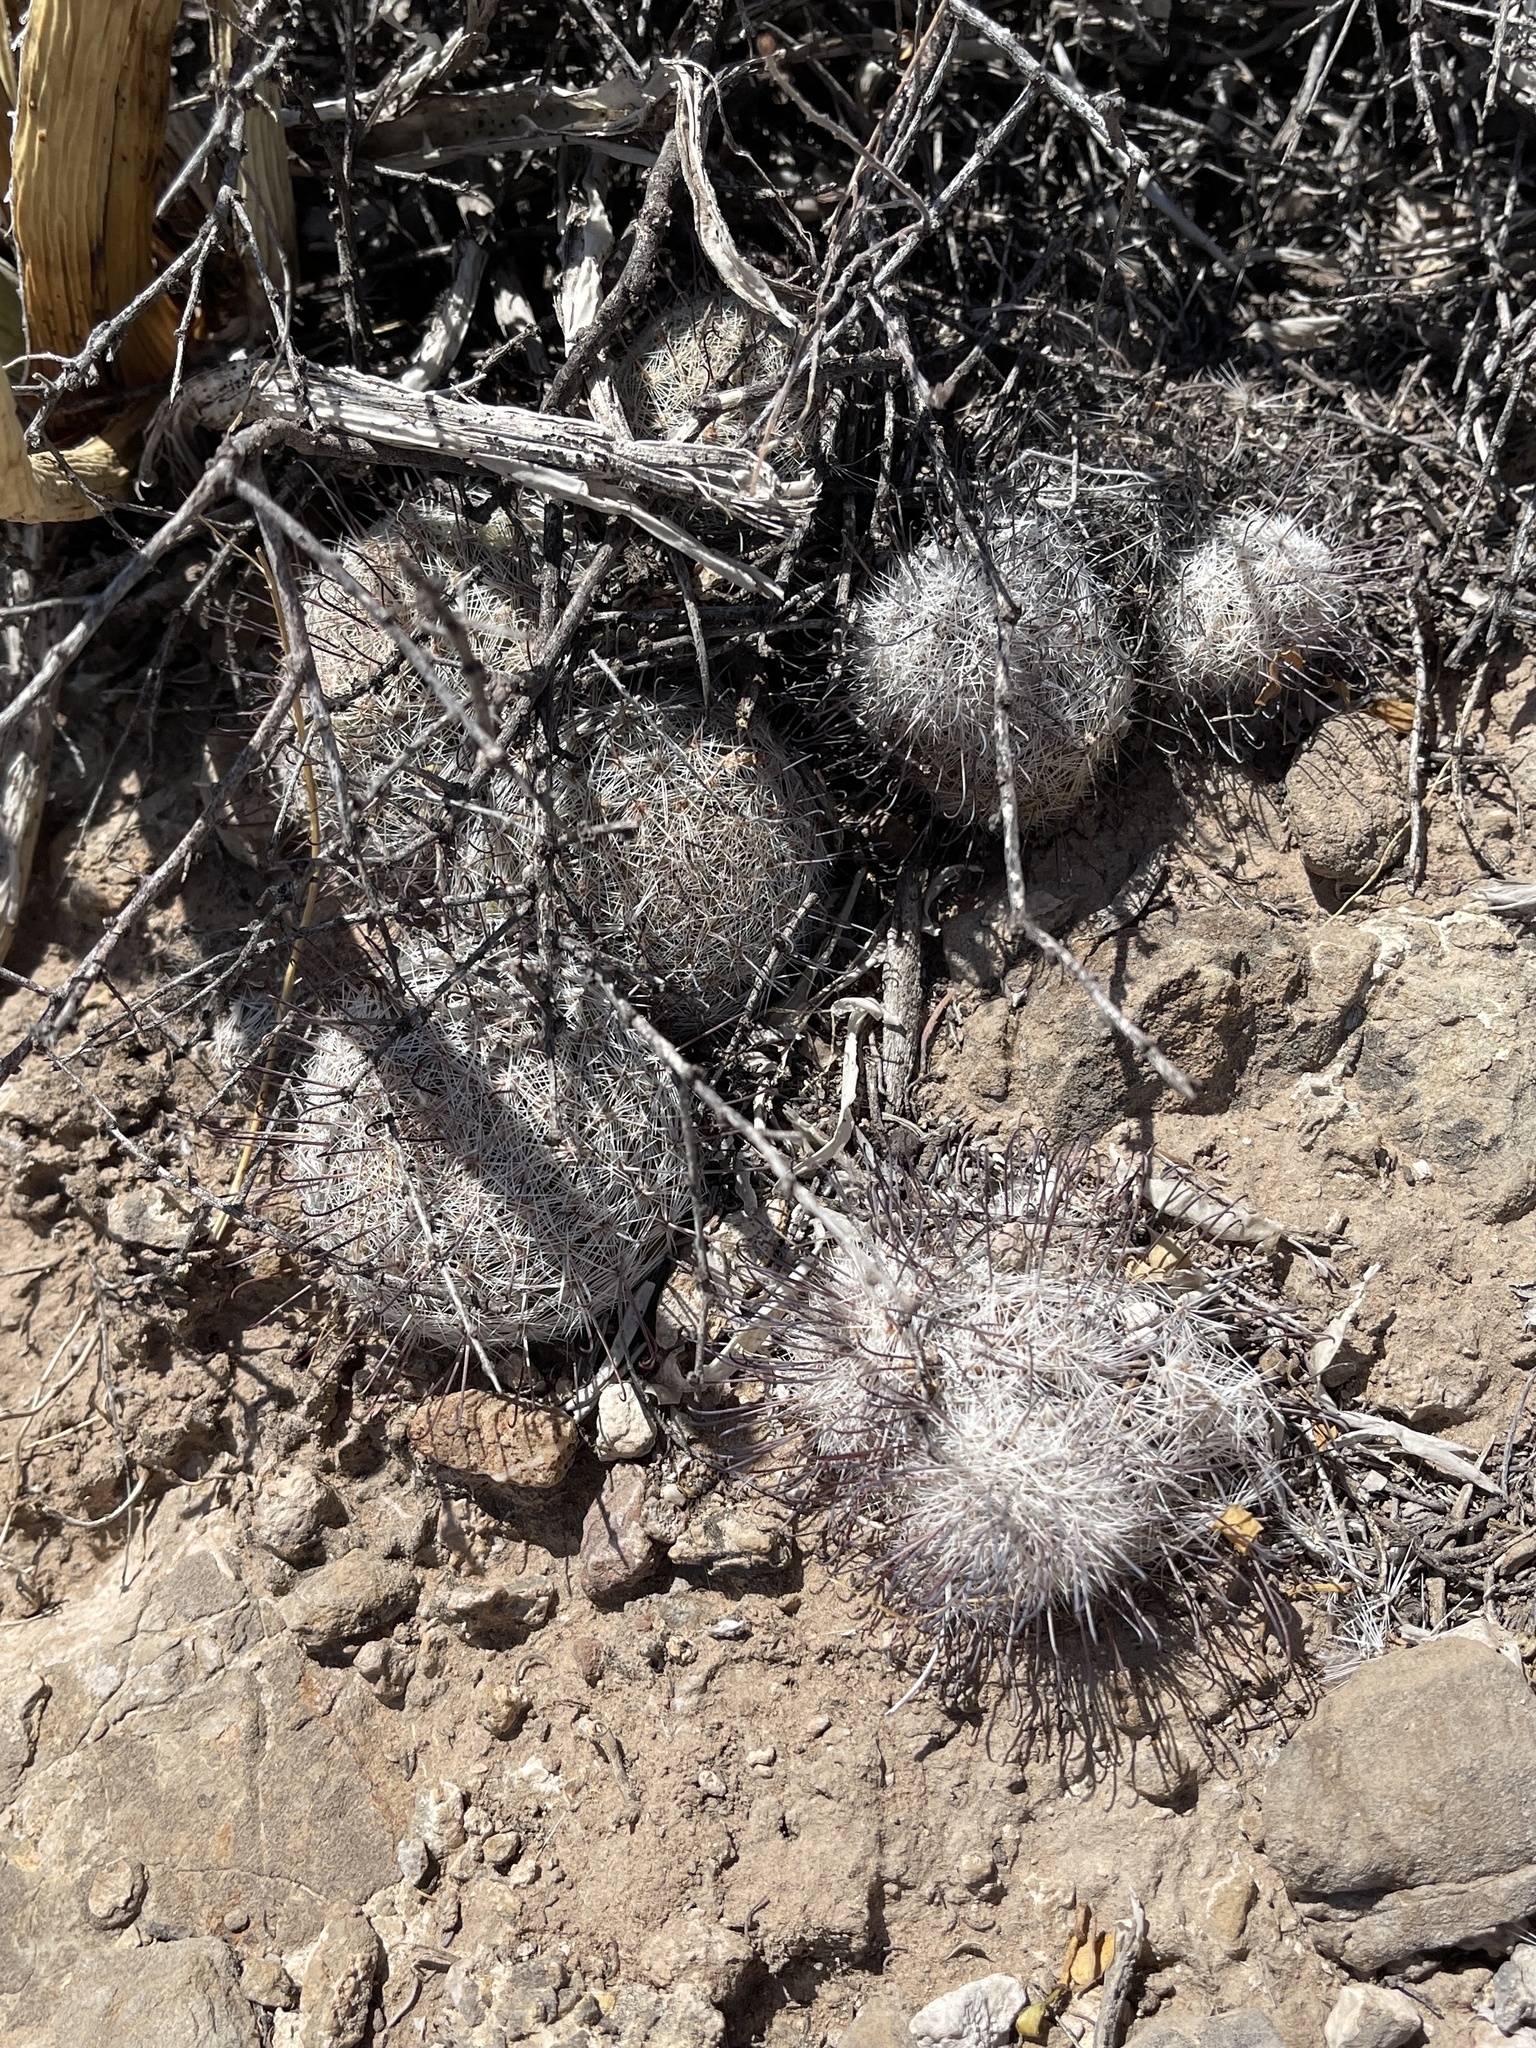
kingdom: Plantae
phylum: Tracheophyta
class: Magnoliopsida
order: Caryophyllales
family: Cactaceae
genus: Cochemiea
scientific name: Cochemiea grahamii
